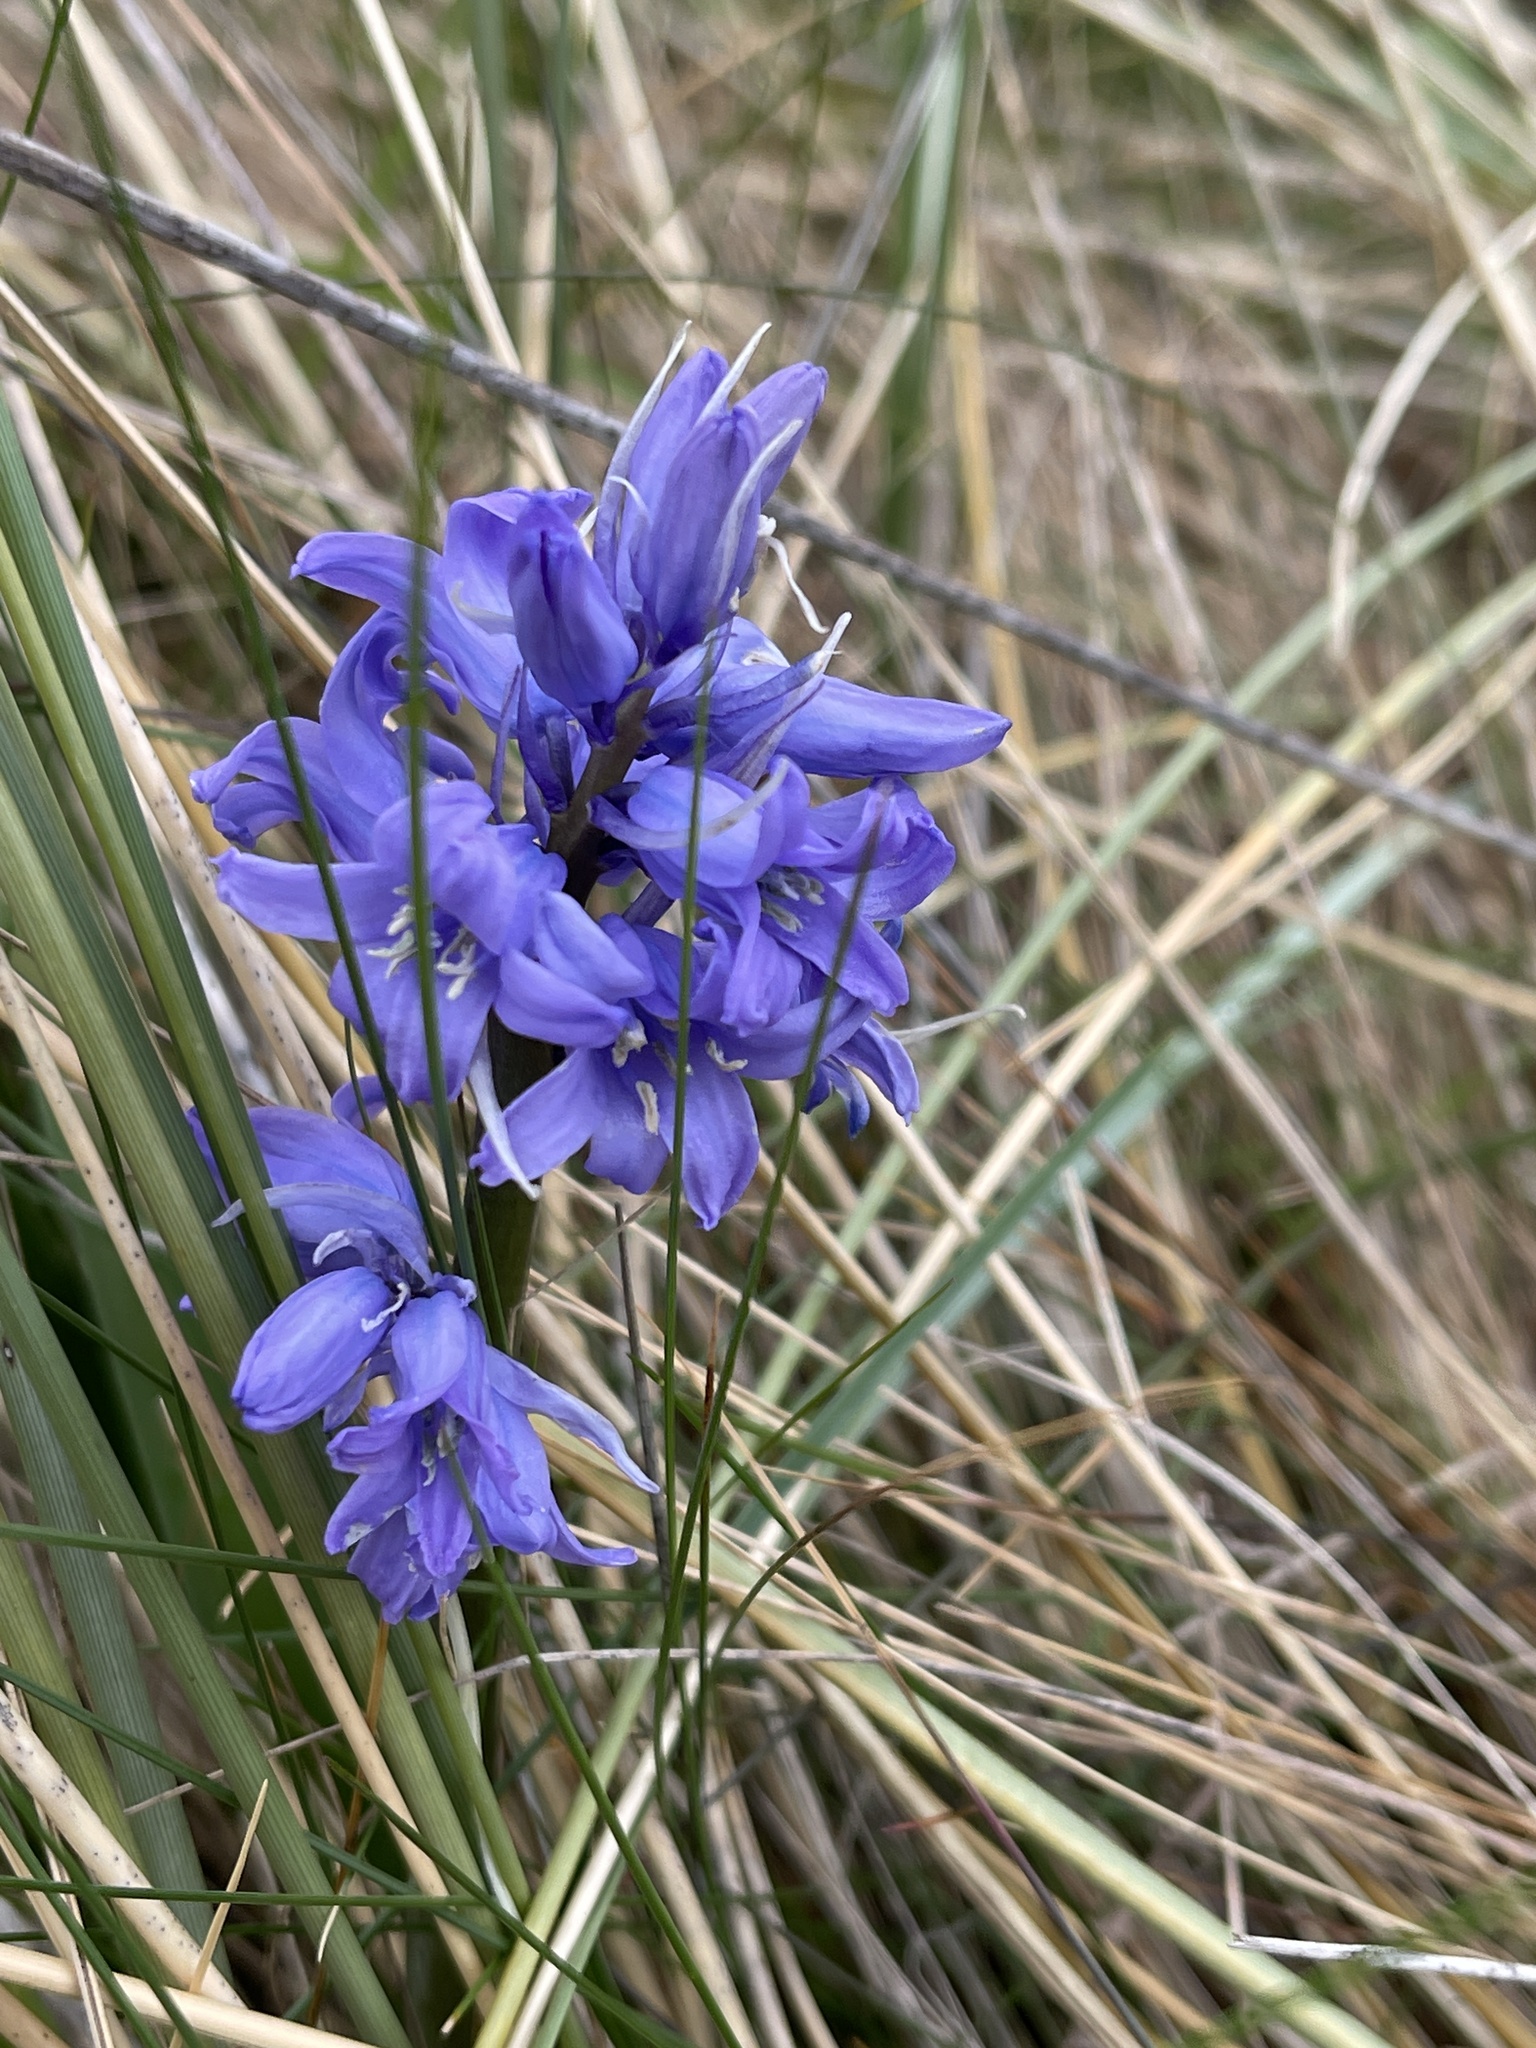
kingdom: Plantae
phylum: Tracheophyta
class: Liliopsida
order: Asparagales
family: Asparagaceae
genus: Hyacinthoides
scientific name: Hyacinthoides massartiana
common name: Hyacinthoides
